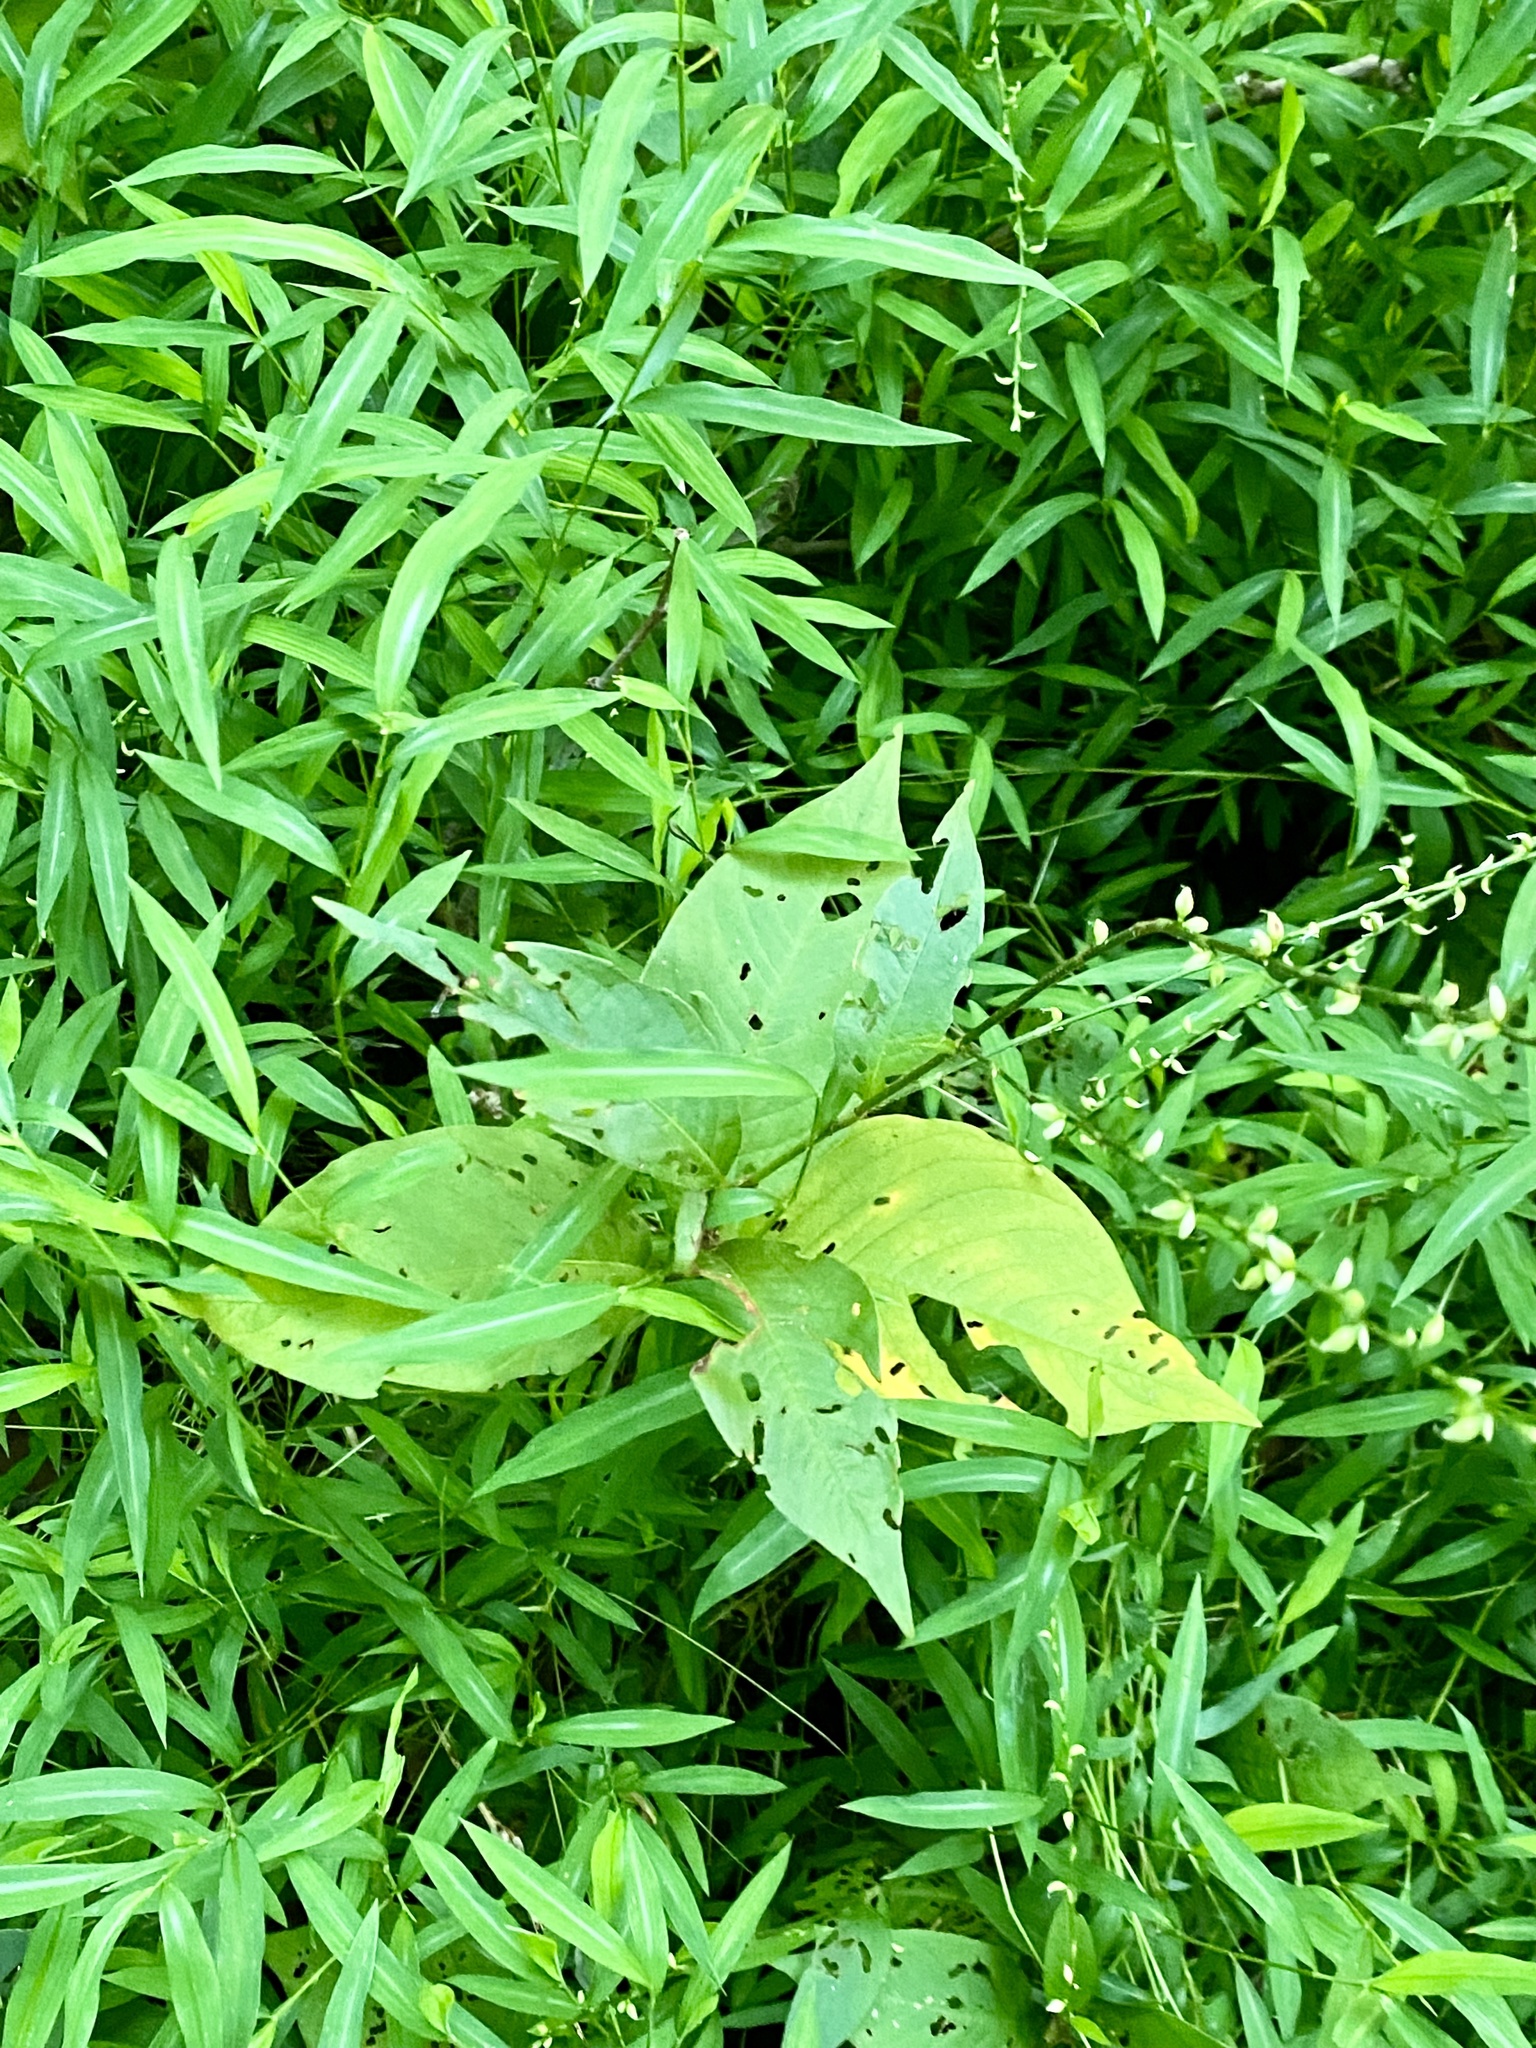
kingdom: Plantae
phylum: Tracheophyta
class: Magnoliopsida
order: Caryophyllales
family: Polygonaceae
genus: Persicaria
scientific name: Persicaria virginiana
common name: Jumpseed
